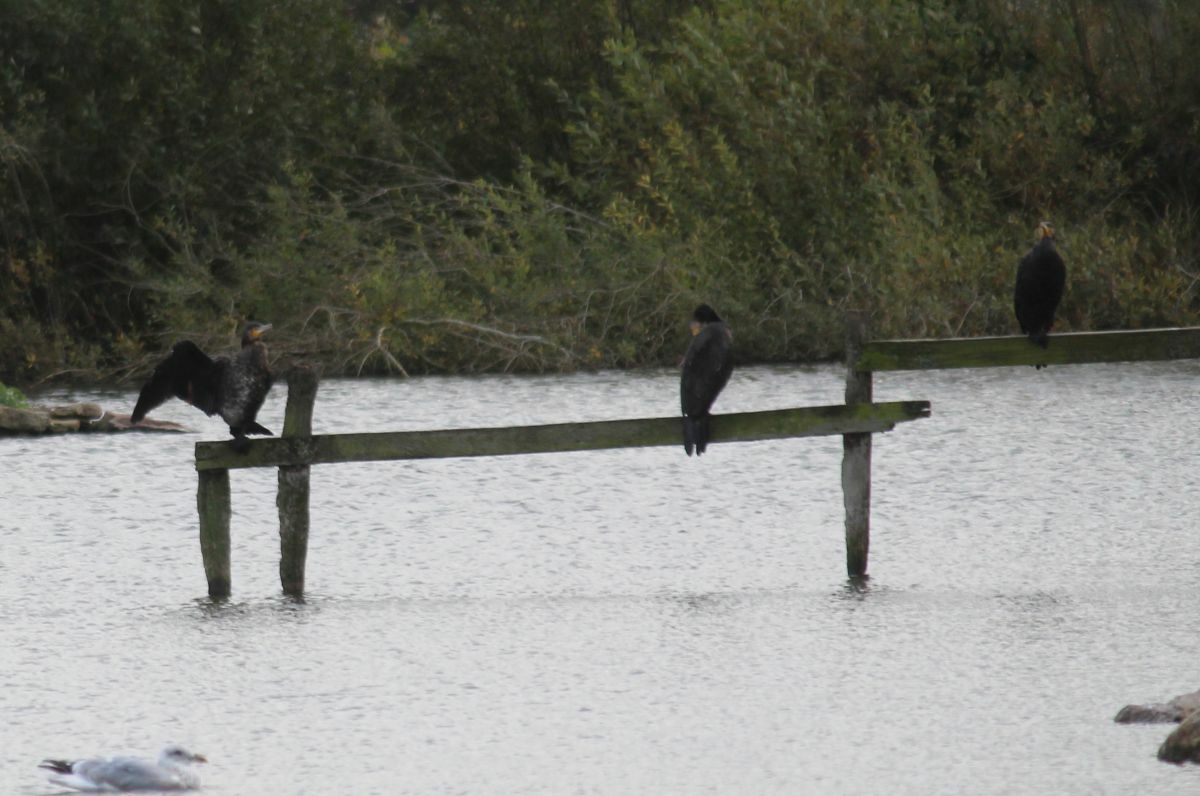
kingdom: Animalia
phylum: Chordata
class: Aves
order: Suliformes
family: Phalacrocoracidae
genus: Phalacrocorax
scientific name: Phalacrocorax carbo
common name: Great cormorant
